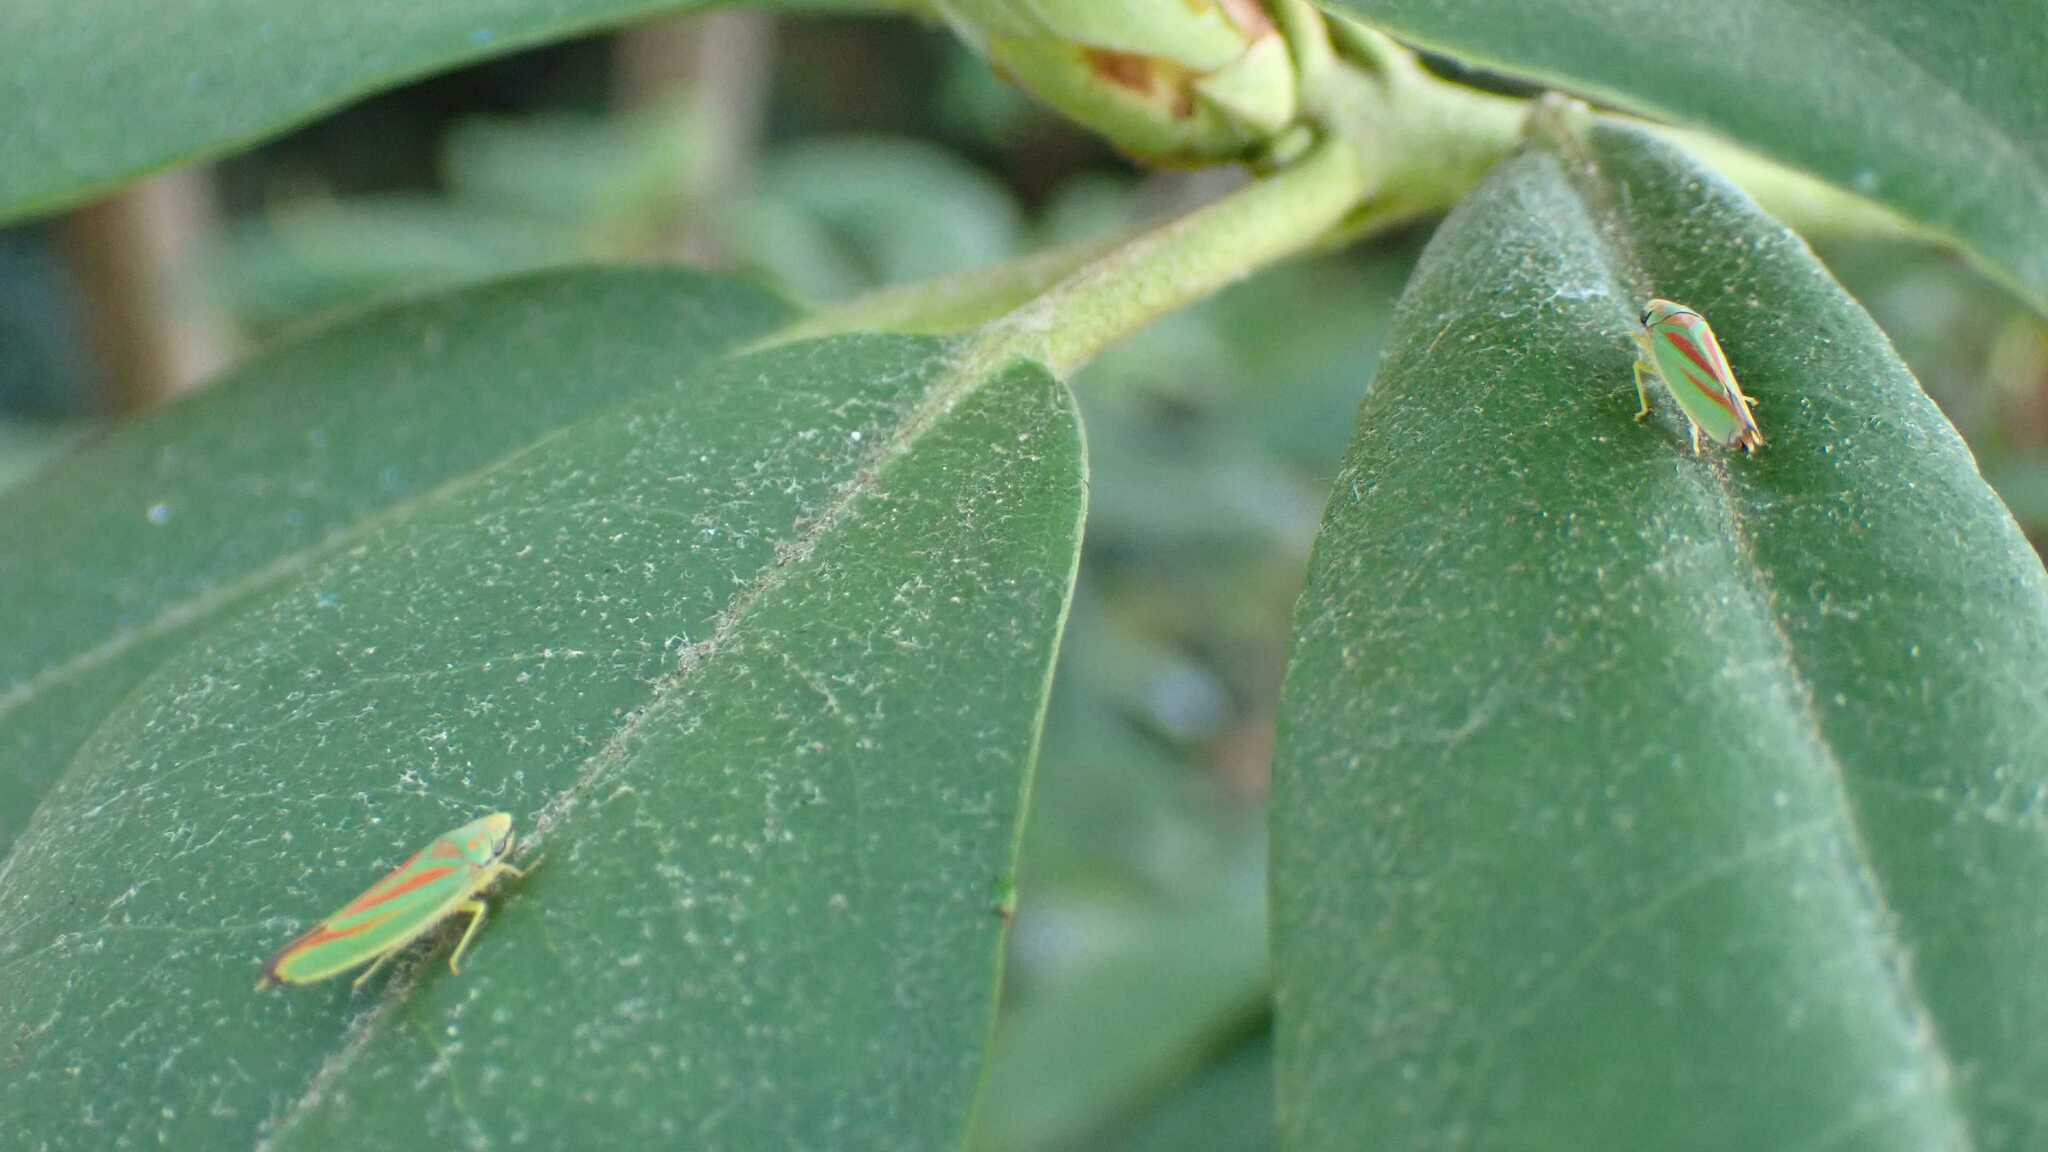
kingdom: Animalia
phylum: Arthropoda
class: Insecta
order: Hemiptera
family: Cicadellidae
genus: Graphocephala
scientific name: Graphocephala fennahi
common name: Rhododendron leafhopper
